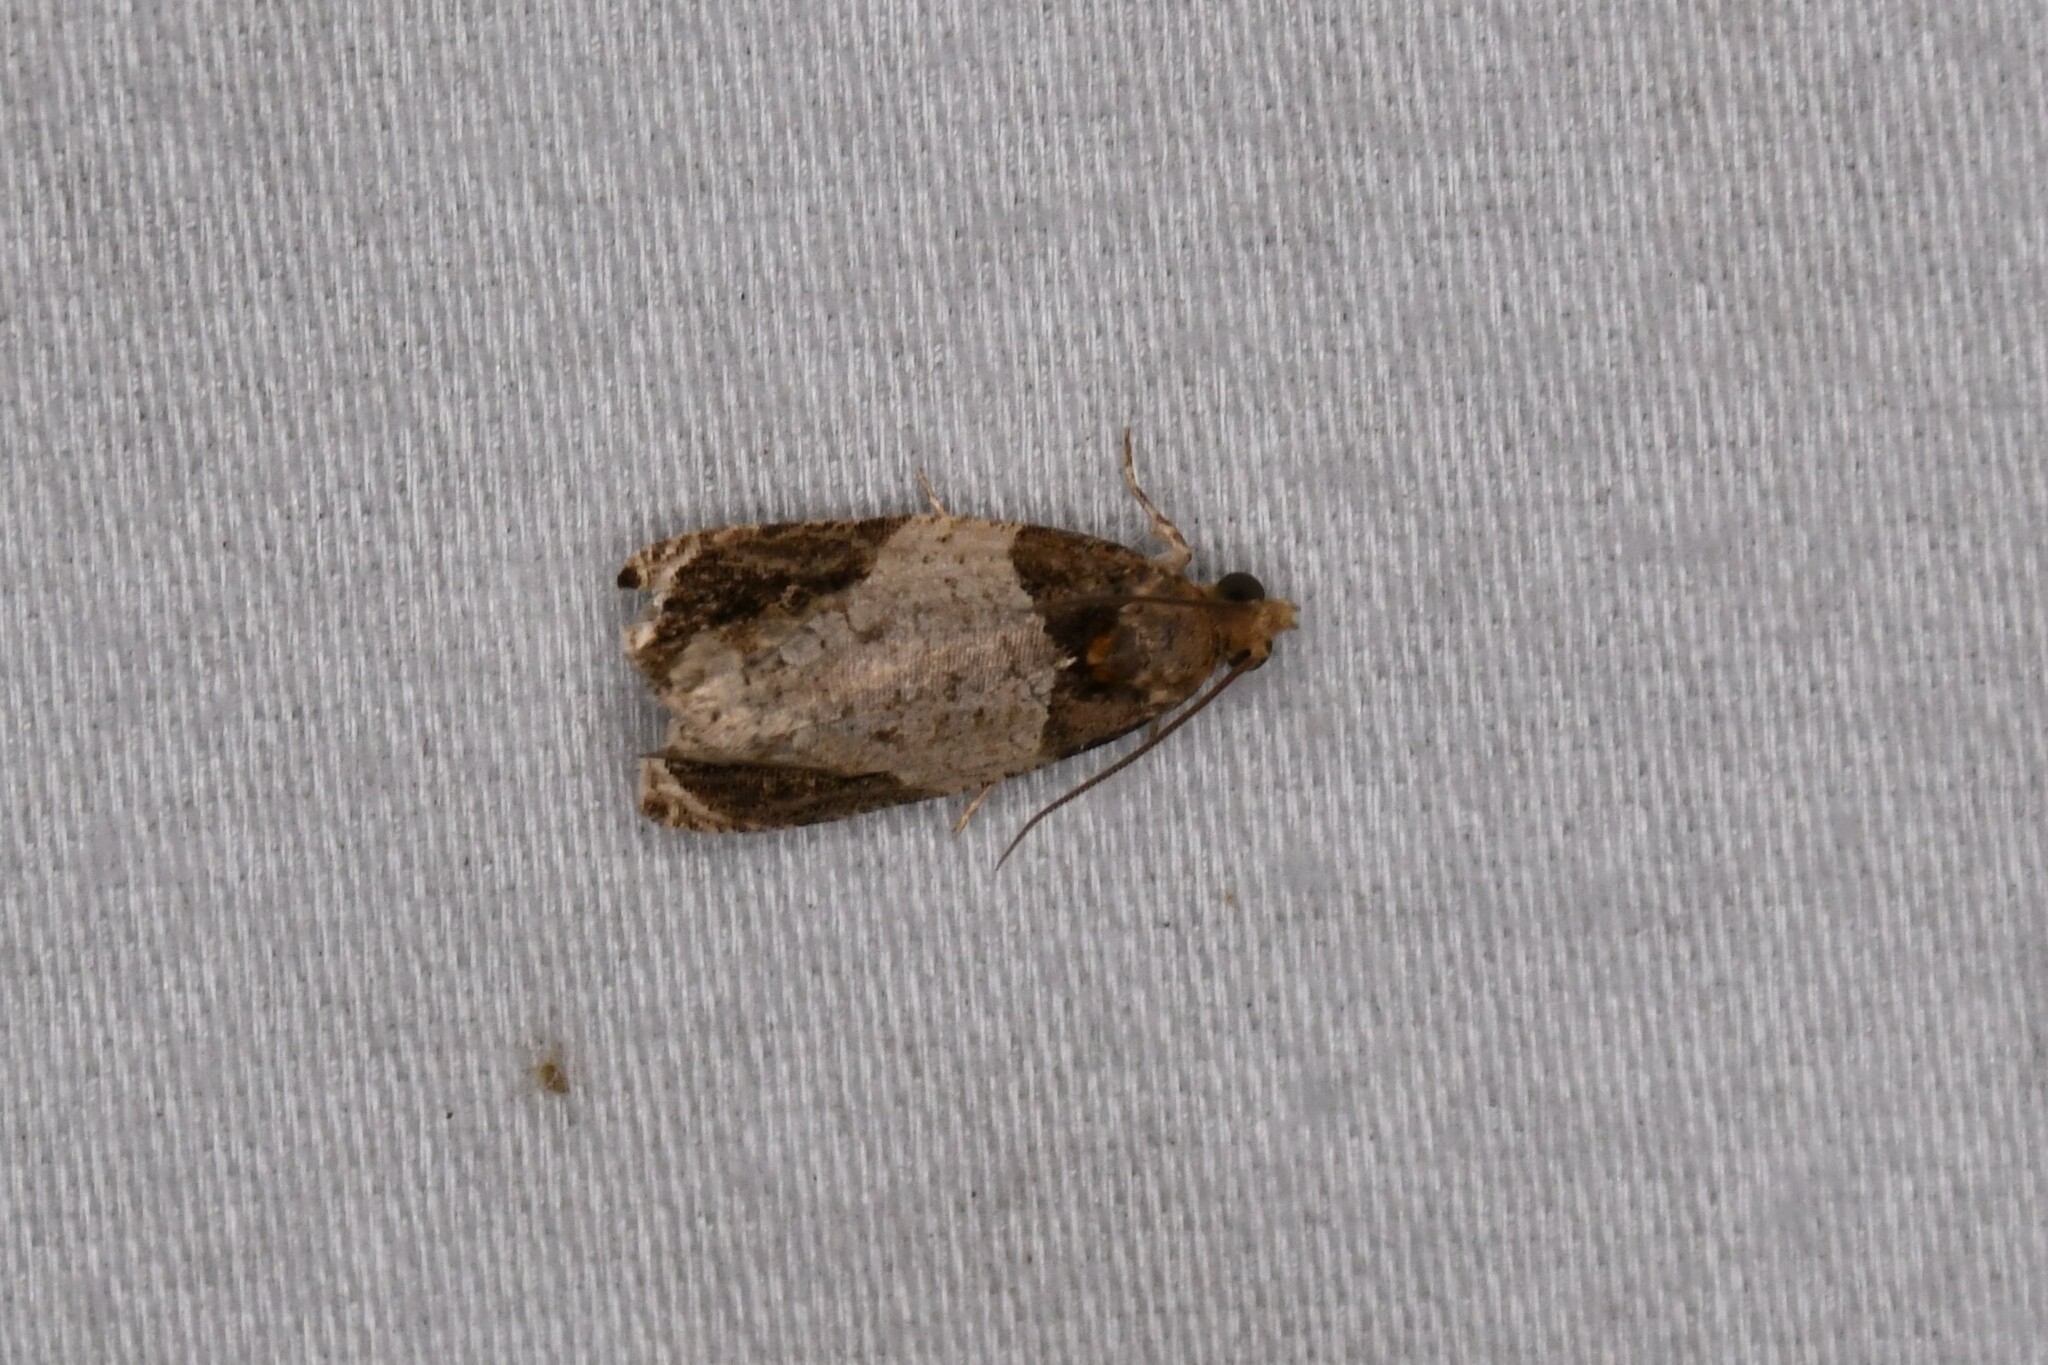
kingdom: Animalia
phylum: Arthropoda
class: Insecta
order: Lepidoptera
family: Tortricidae
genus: Olethreutes
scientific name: Olethreutes ferriferana
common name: Hydrangea leaftier moth
